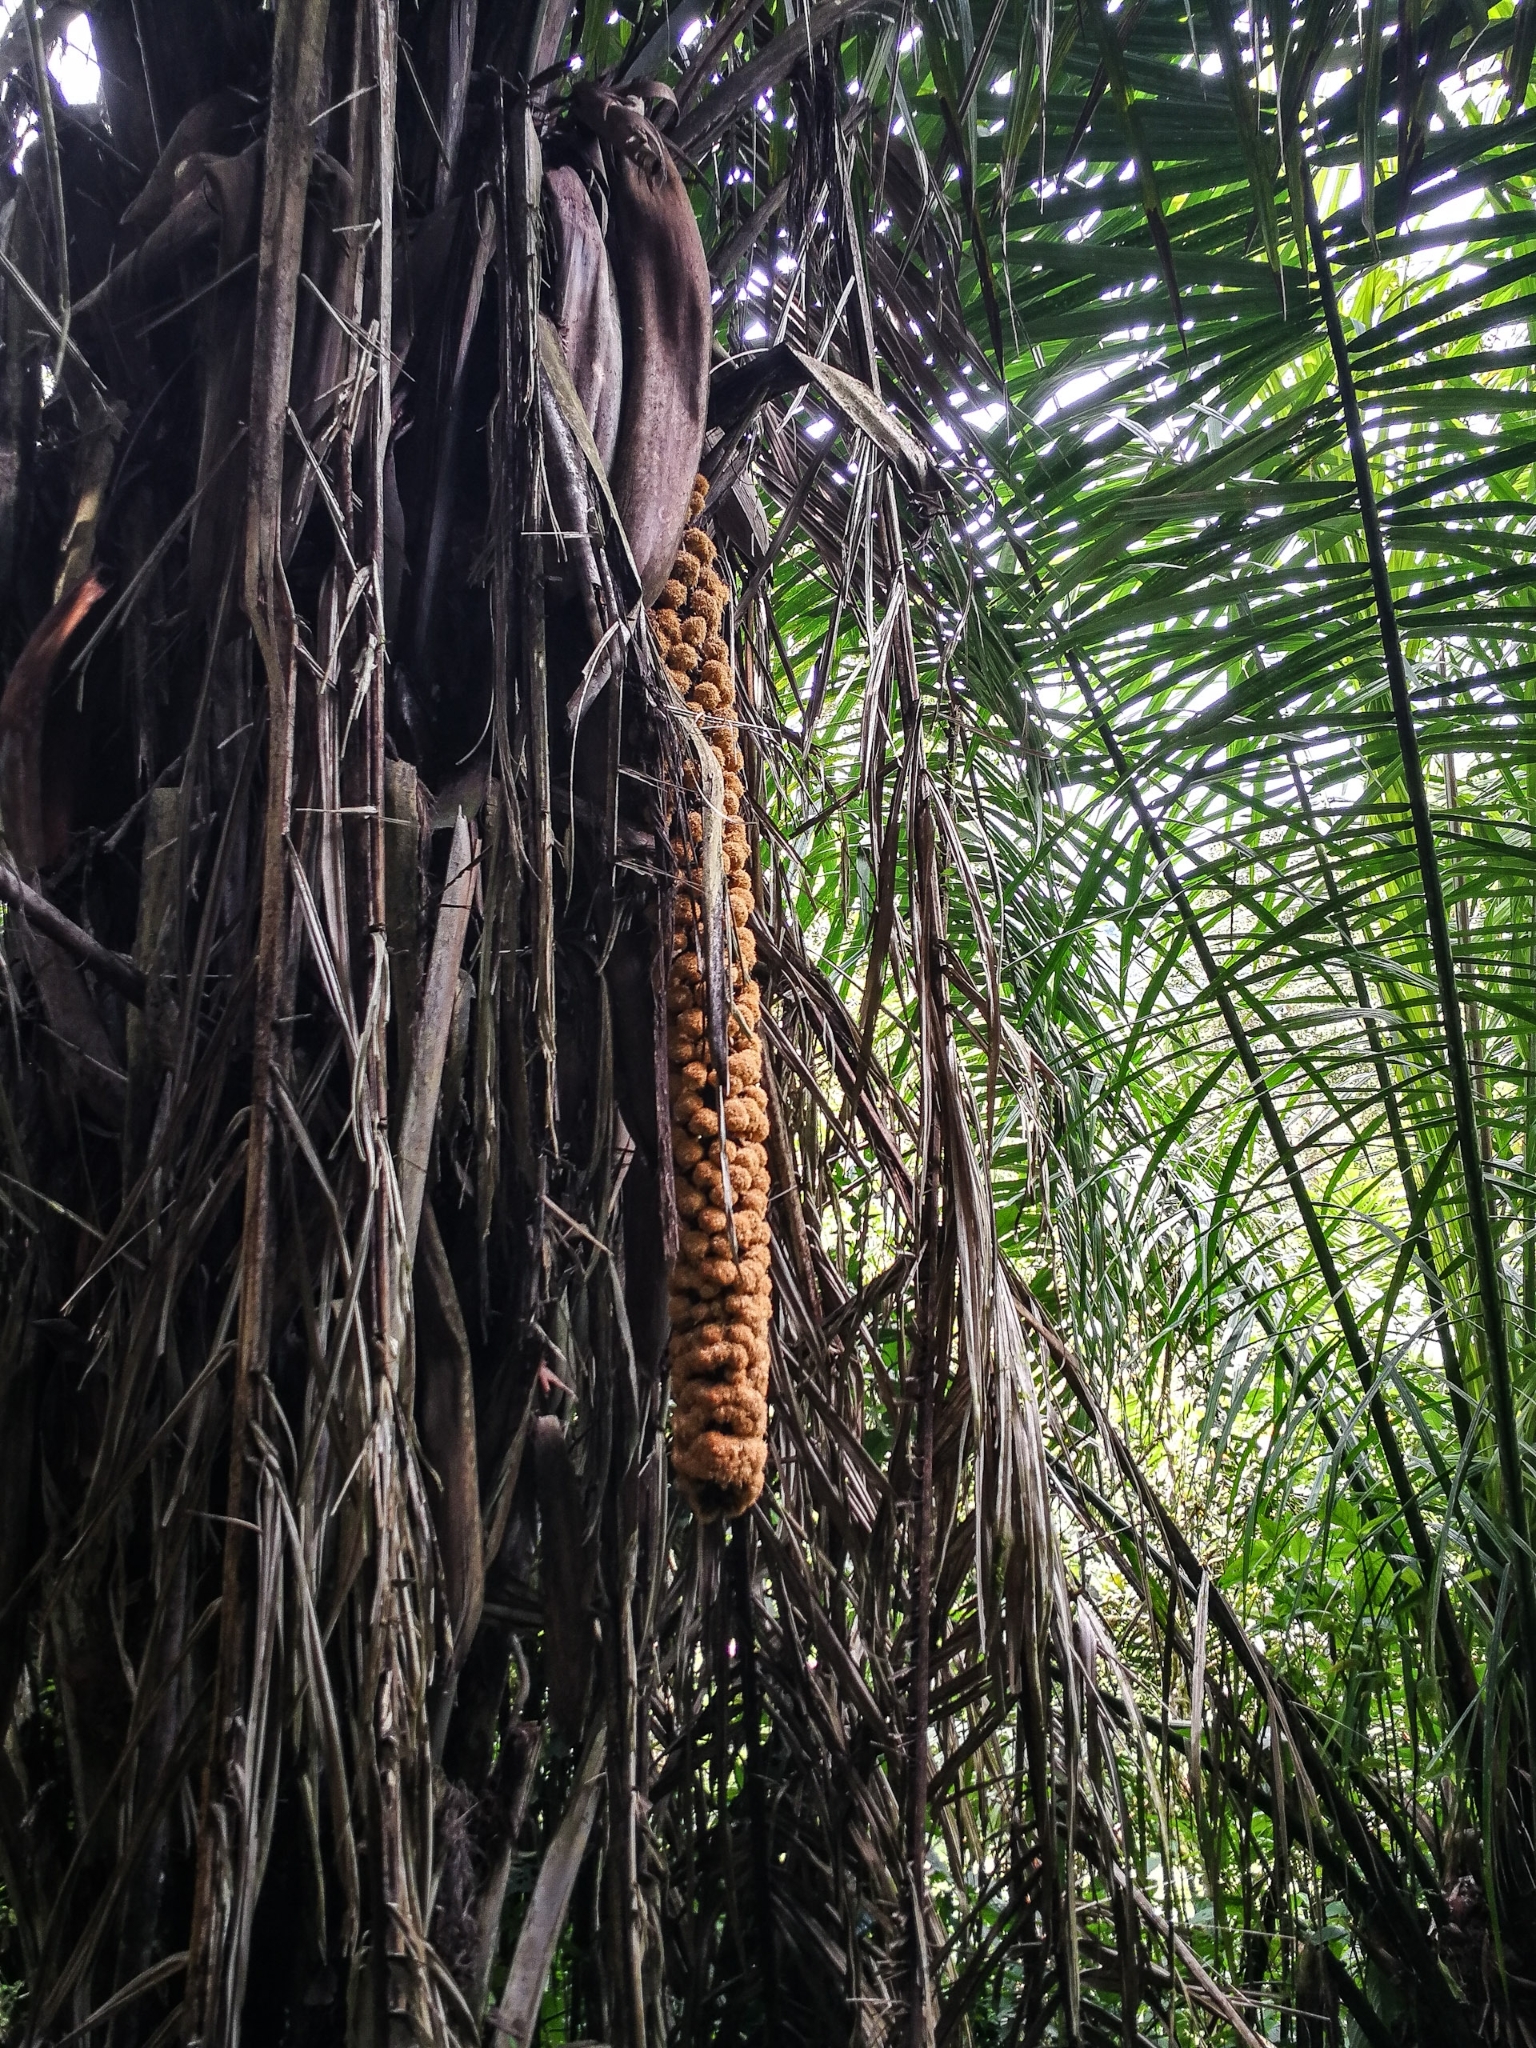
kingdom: Plantae
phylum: Tracheophyta
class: Liliopsida
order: Arecales
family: Arecaceae
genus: Phytelephas
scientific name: Phytelephas aequatorialis
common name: Ivory palm
